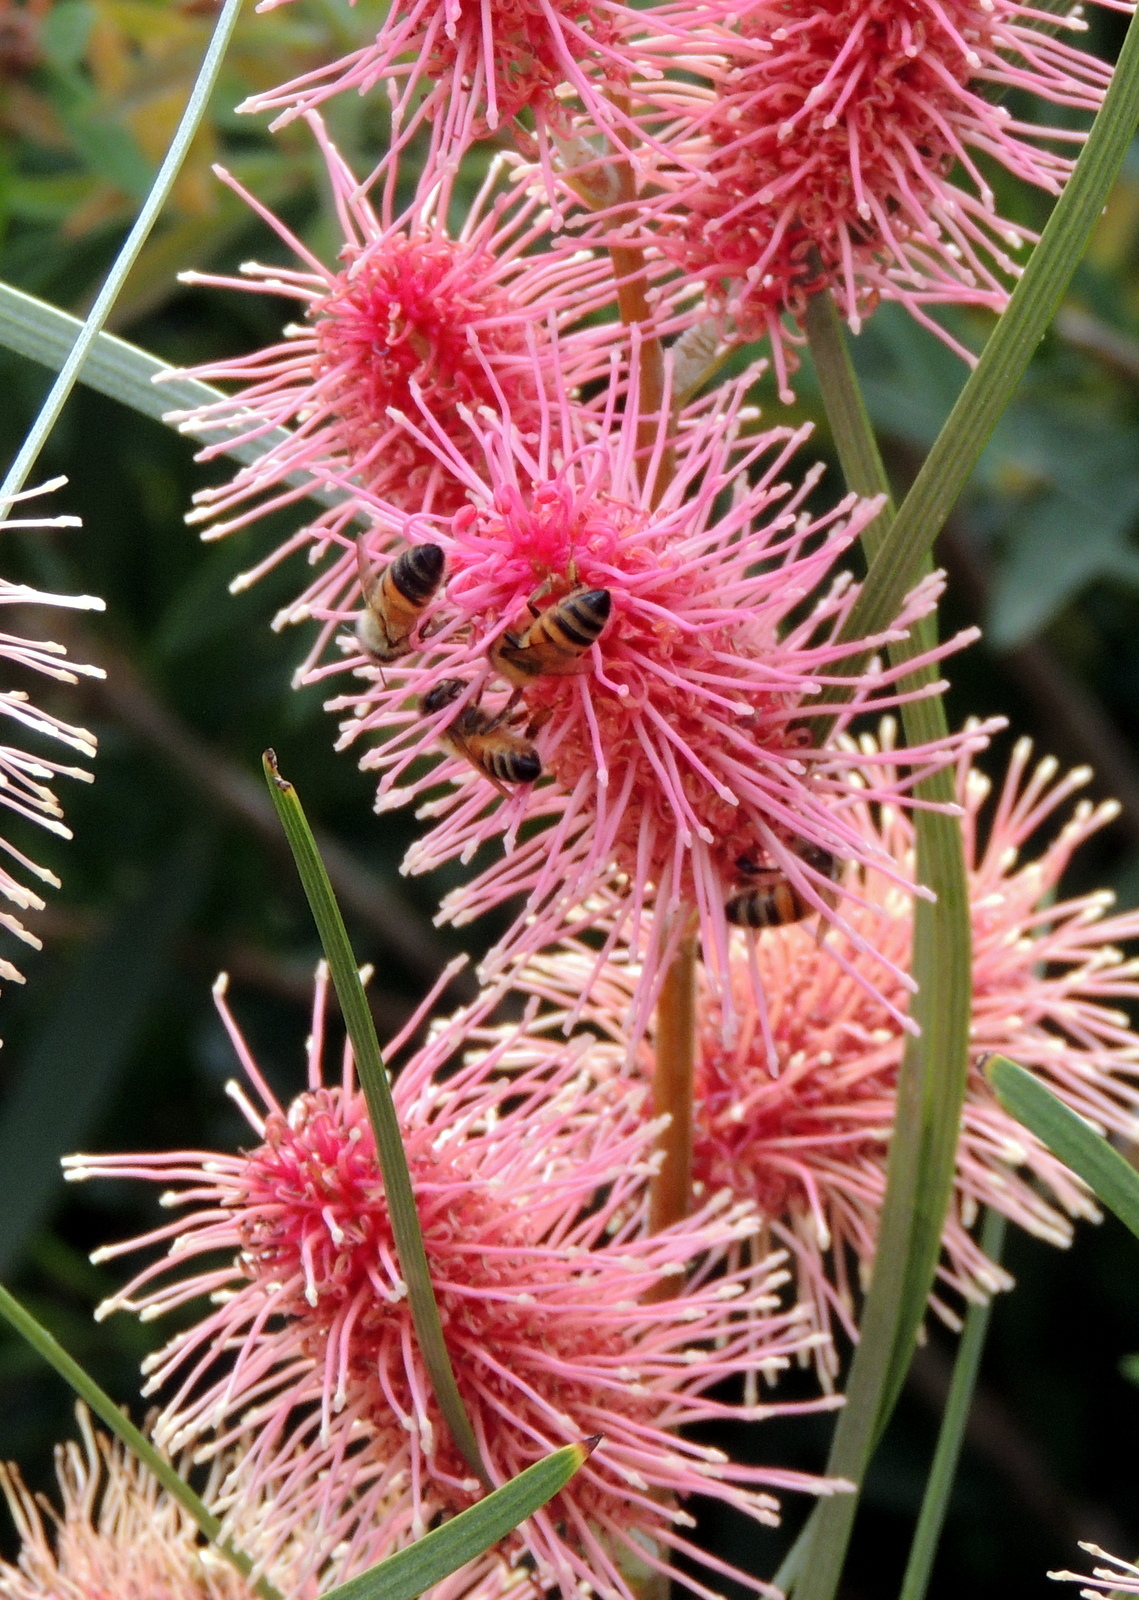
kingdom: Animalia
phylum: Arthropoda
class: Insecta
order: Hymenoptera
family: Apidae
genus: Apis
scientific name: Apis mellifera
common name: Honey bee
